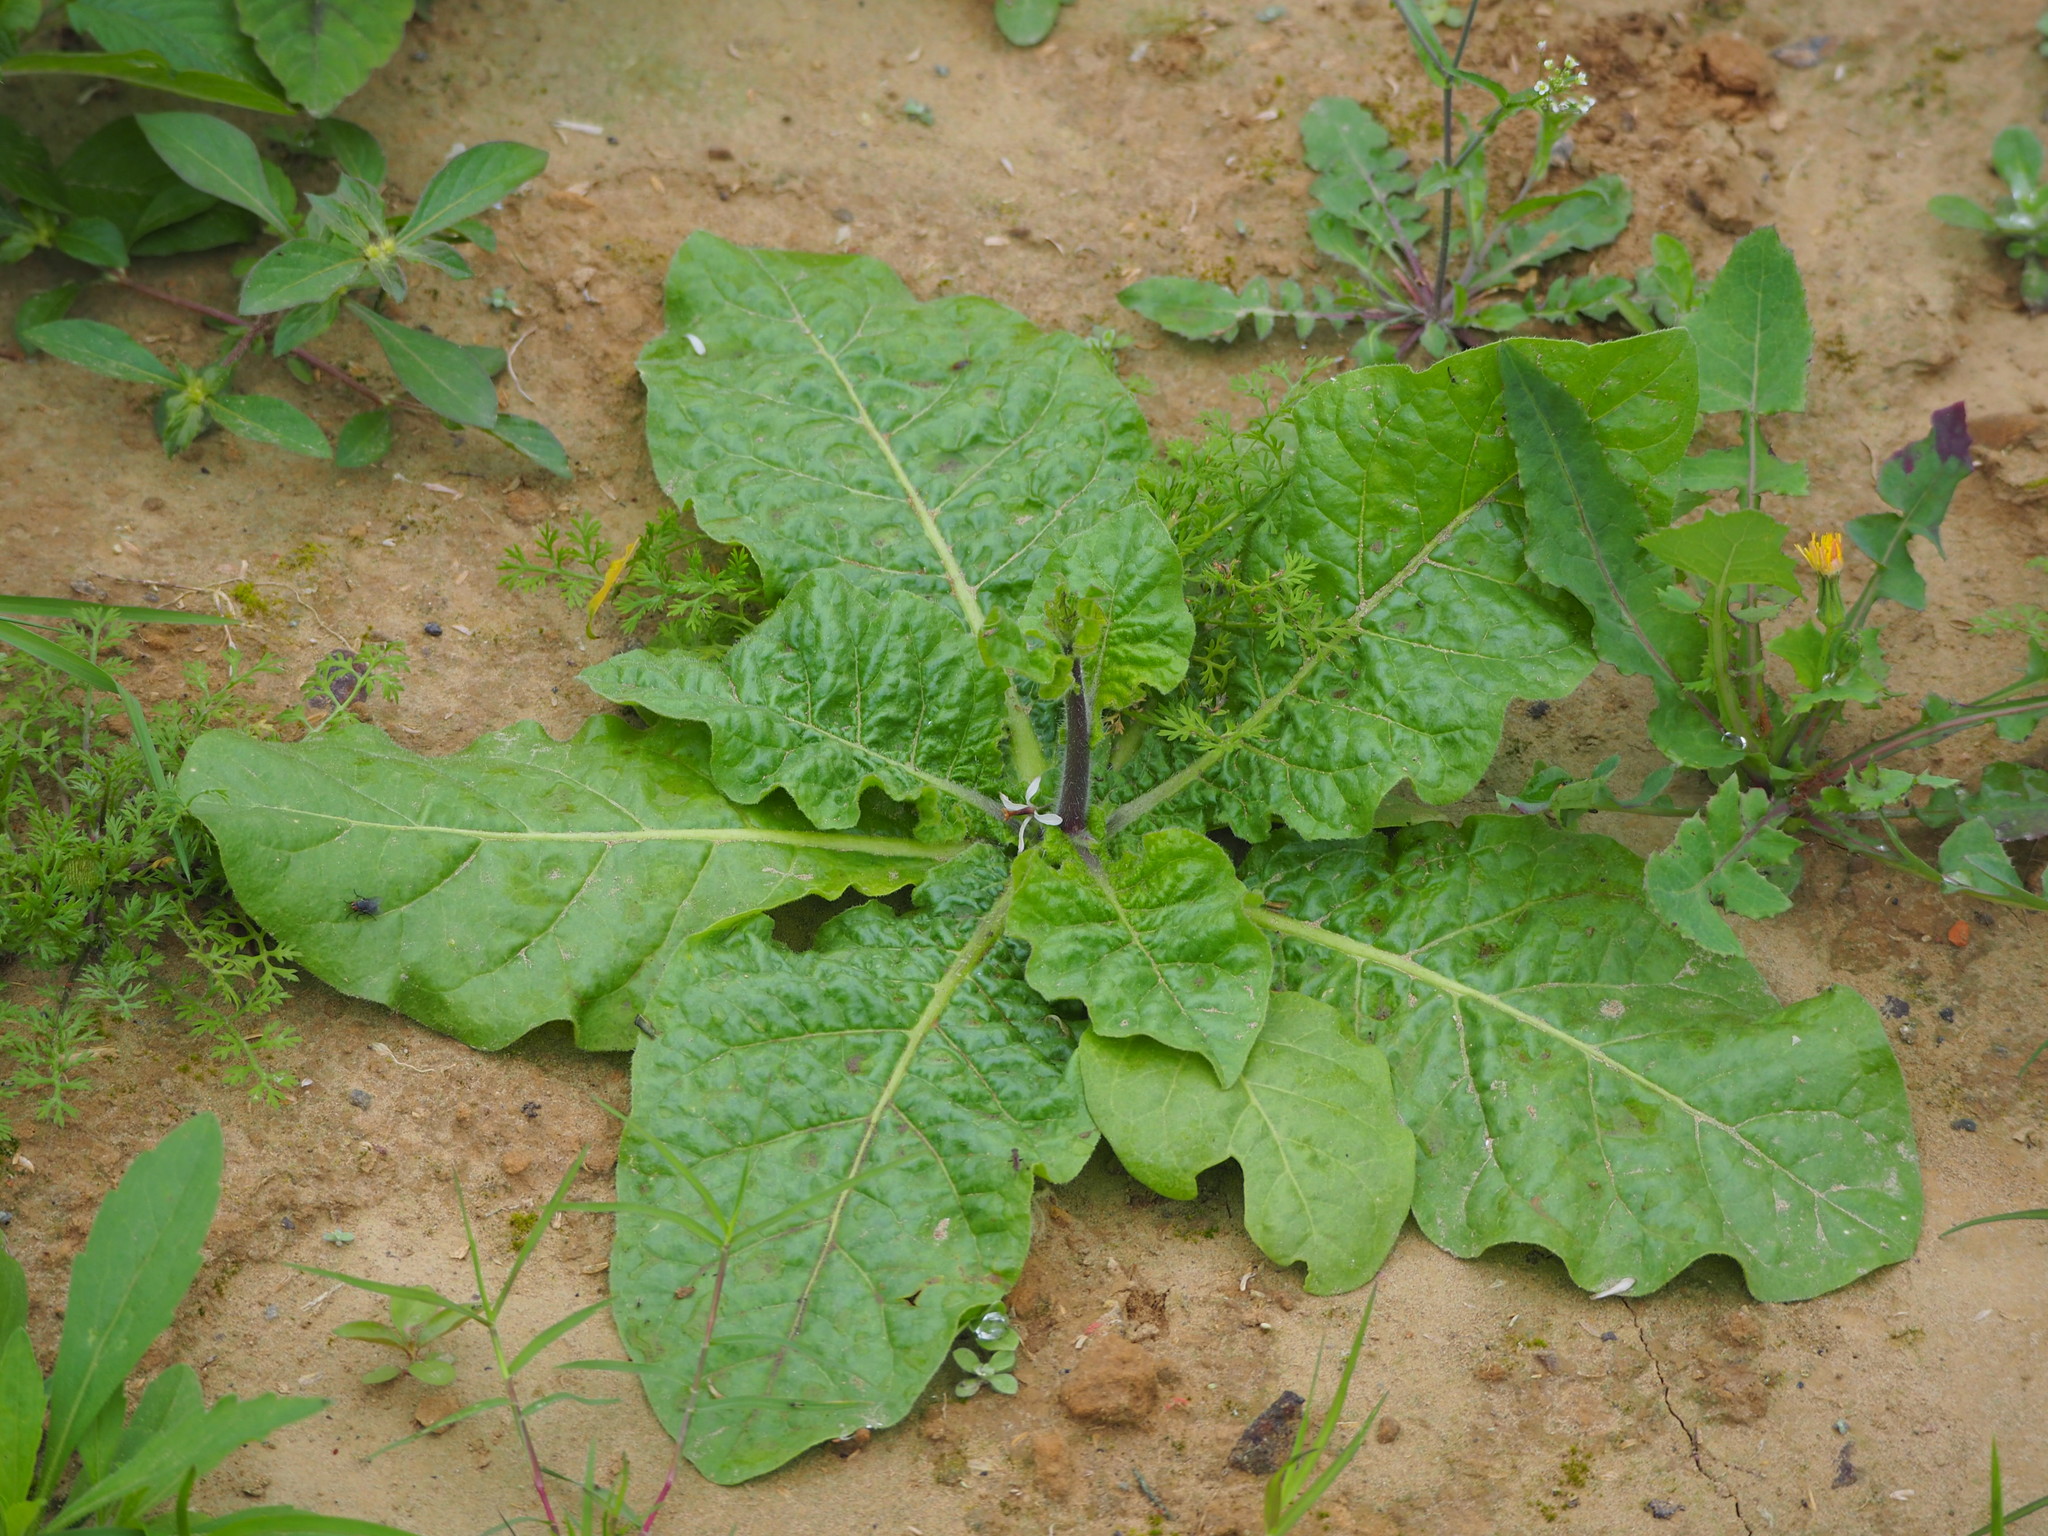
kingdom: Plantae
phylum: Tracheophyta
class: Magnoliopsida
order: Solanales
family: Solanaceae
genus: Nicotiana
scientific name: Nicotiana plumbaginifolia
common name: Tex-mex tobacco
